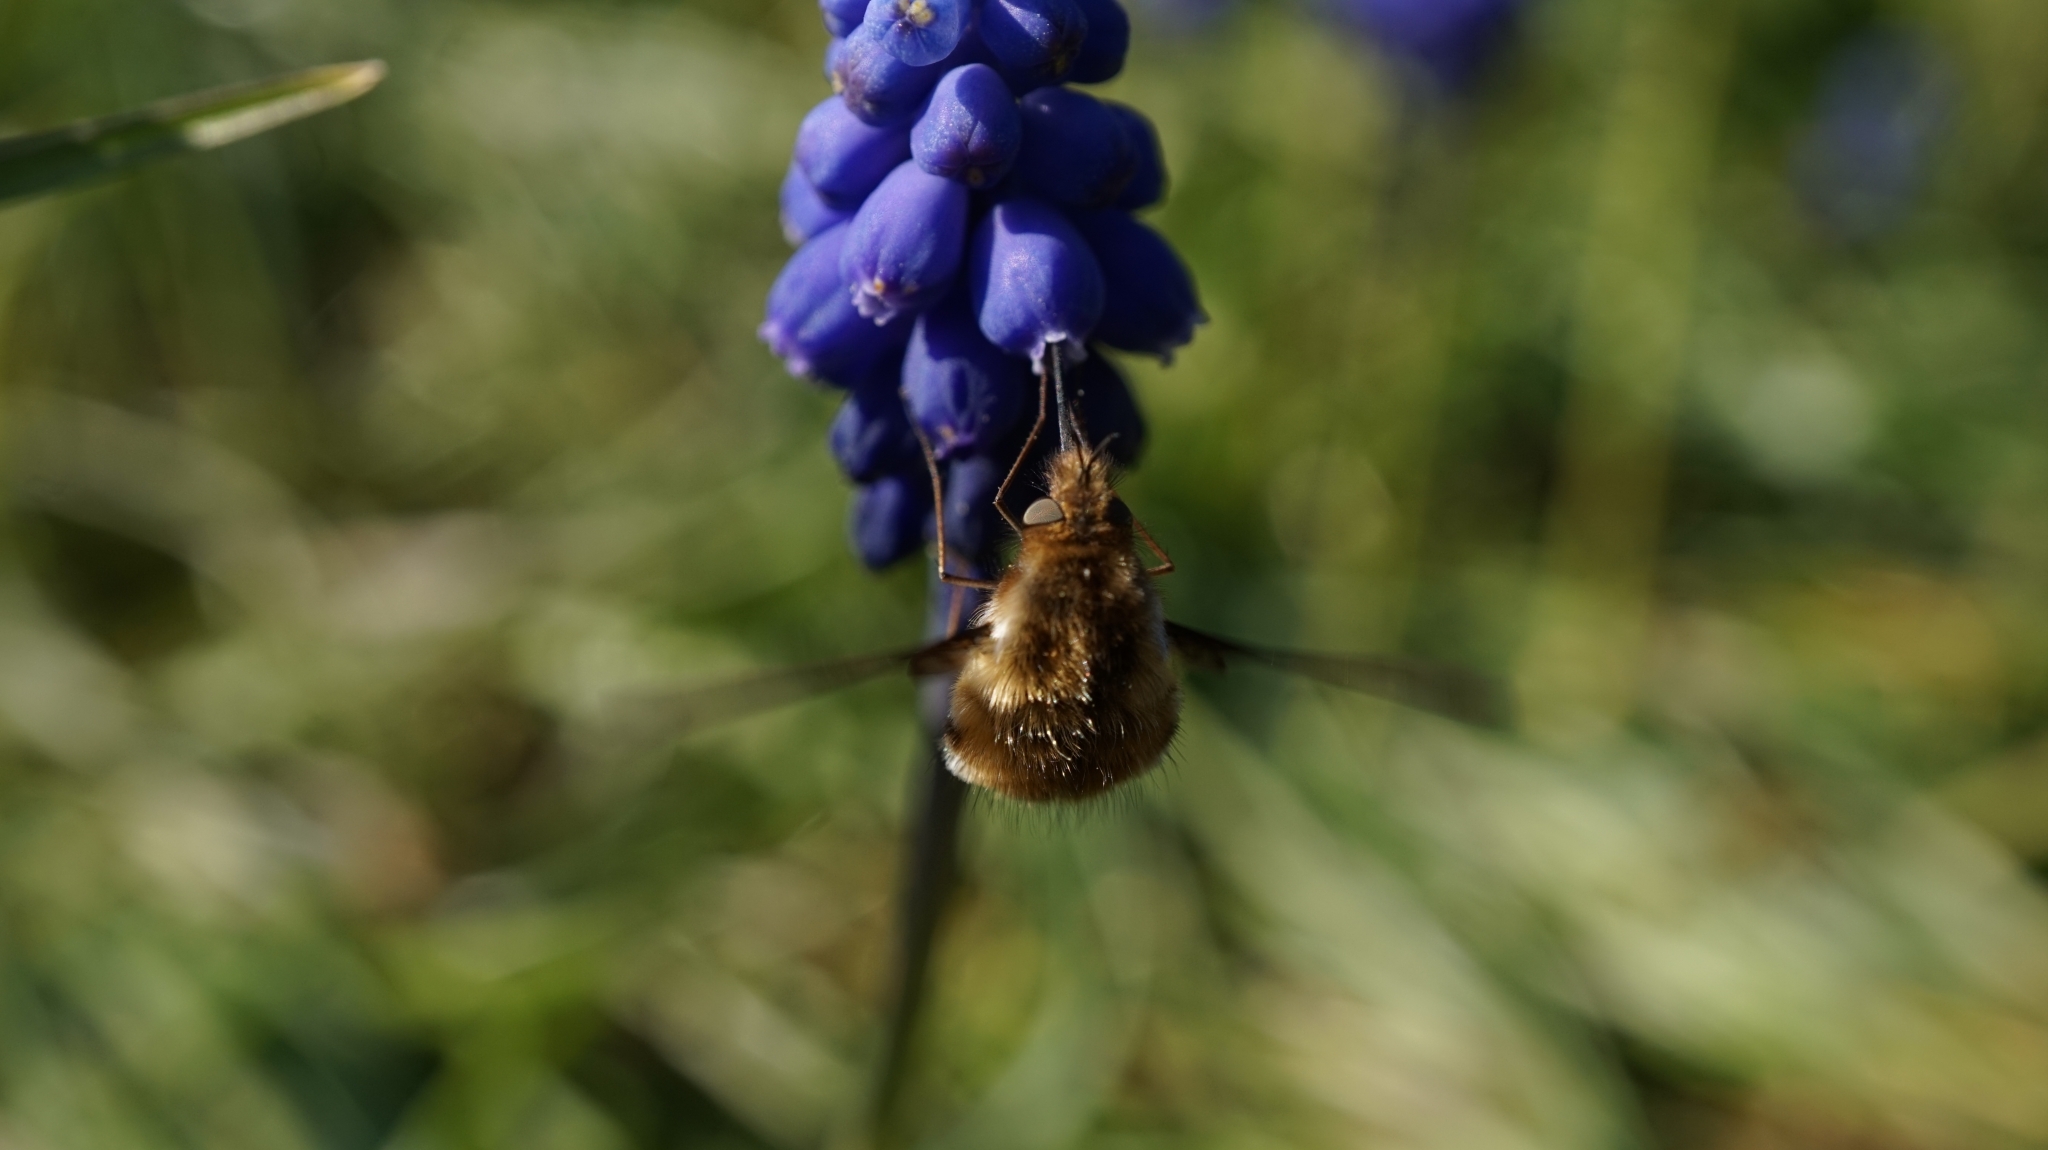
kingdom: Animalia
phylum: Arthropoda
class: Insecta
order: Diptera
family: Bombyliidae
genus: Bombylius
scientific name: Bombylius major
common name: Bee fly
